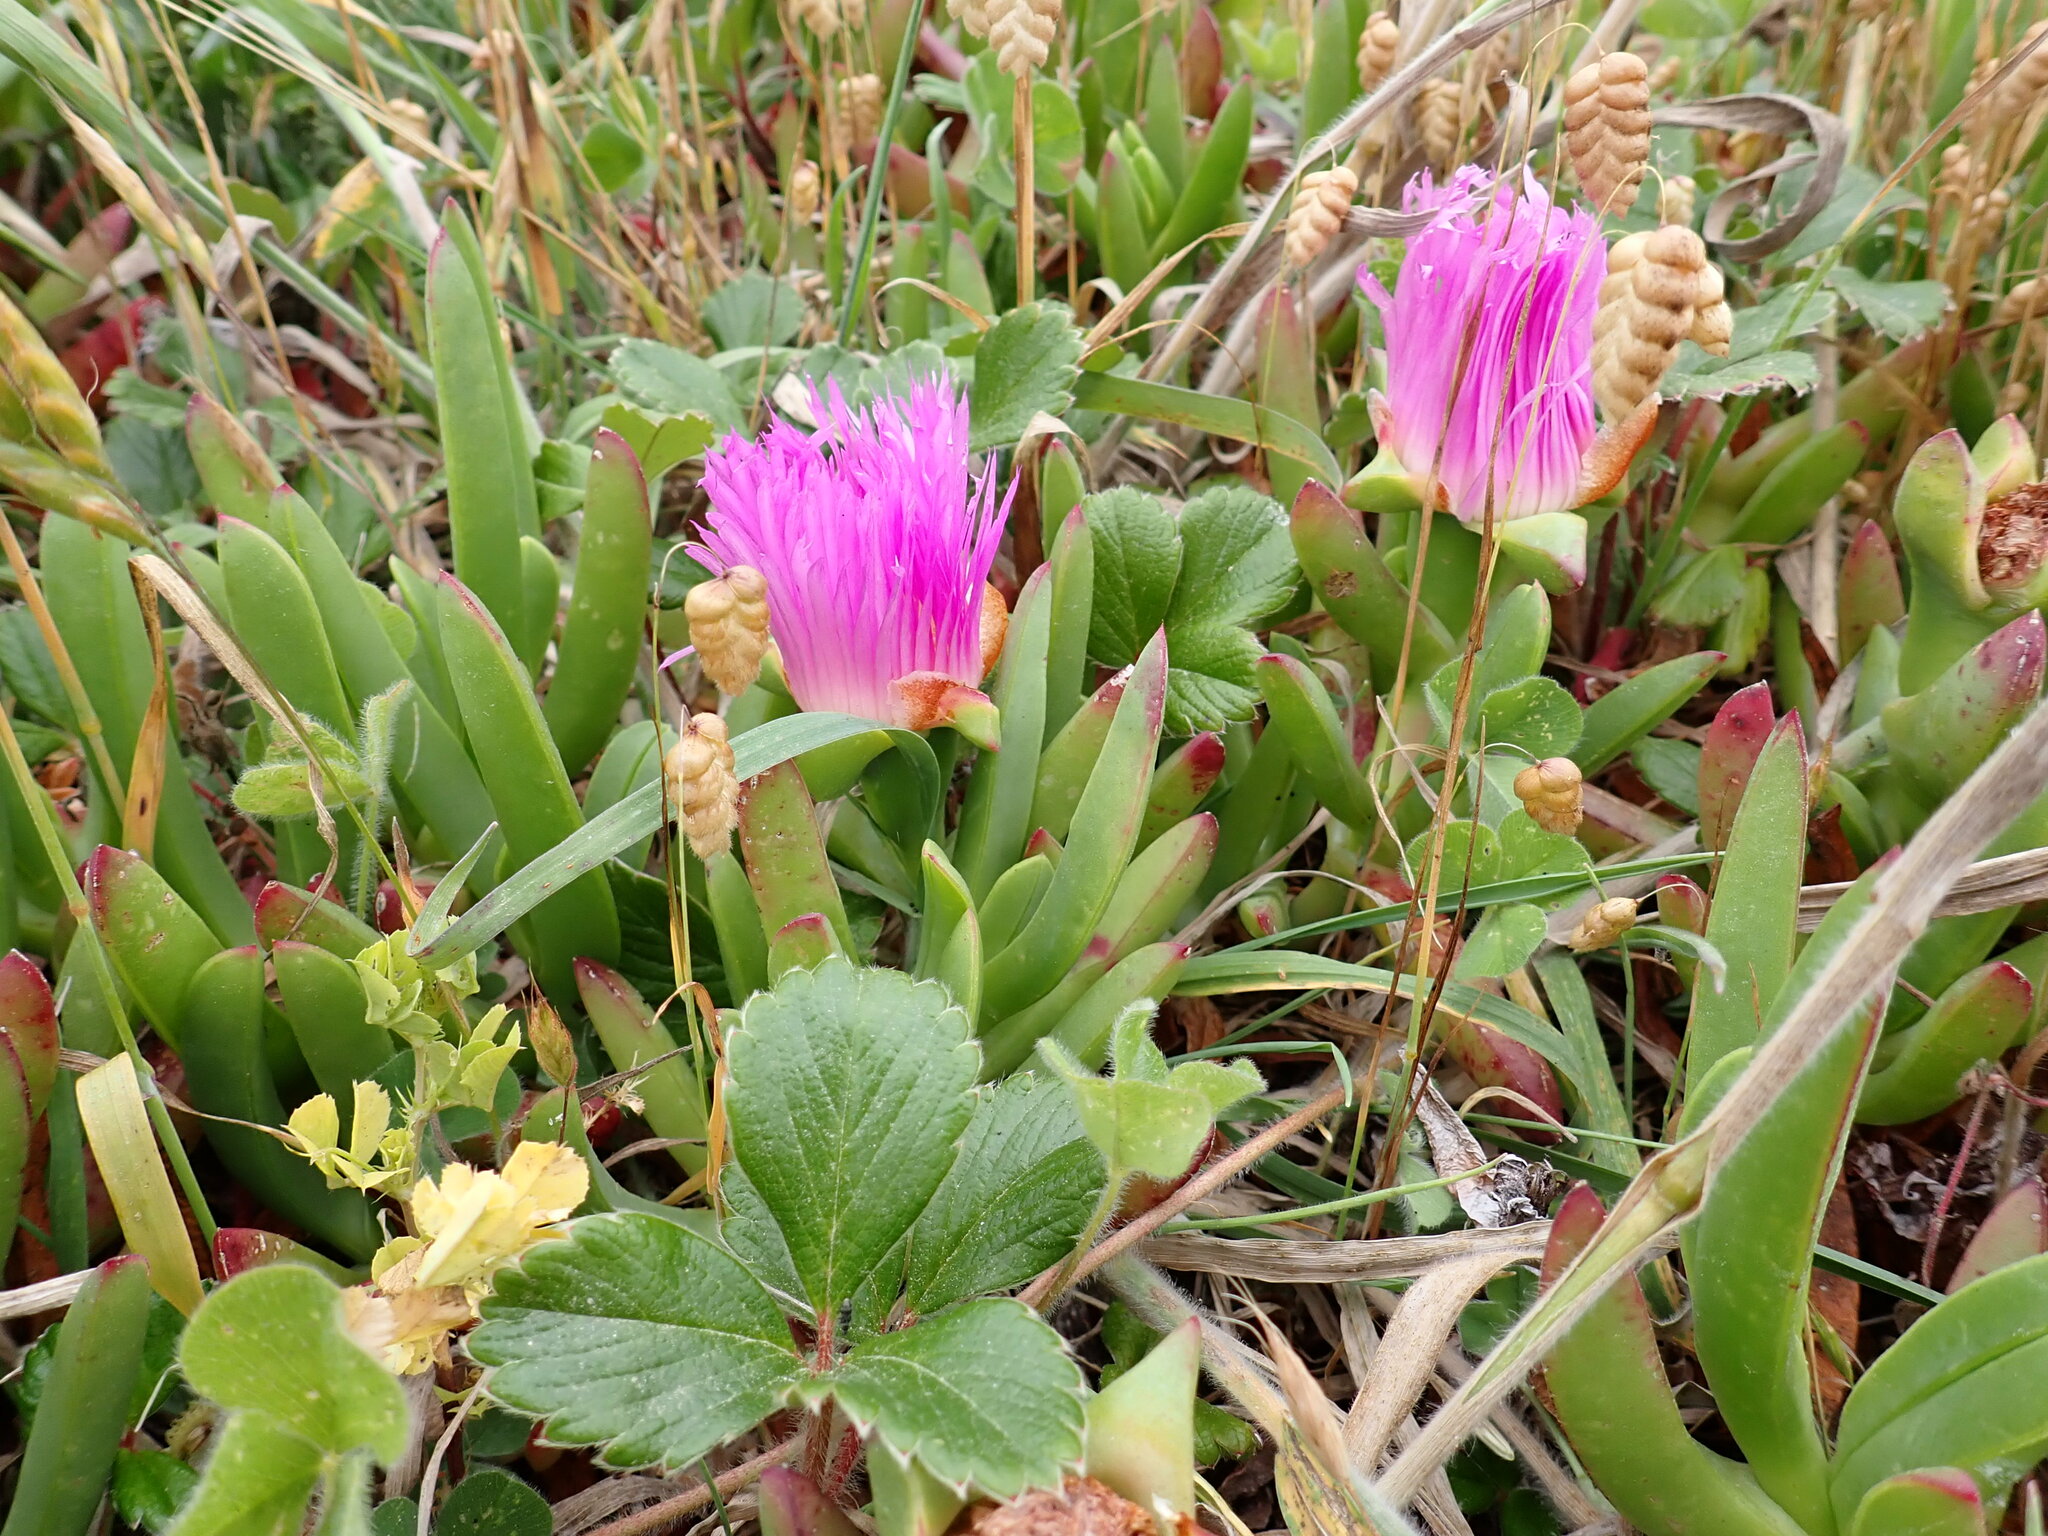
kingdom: Plantae
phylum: Tracheophyta
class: Magnoliopsida
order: Caryophyllales
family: Aizoaceae
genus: Carpobrotus
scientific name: Carpobrotus chilensis
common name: Sea fig
